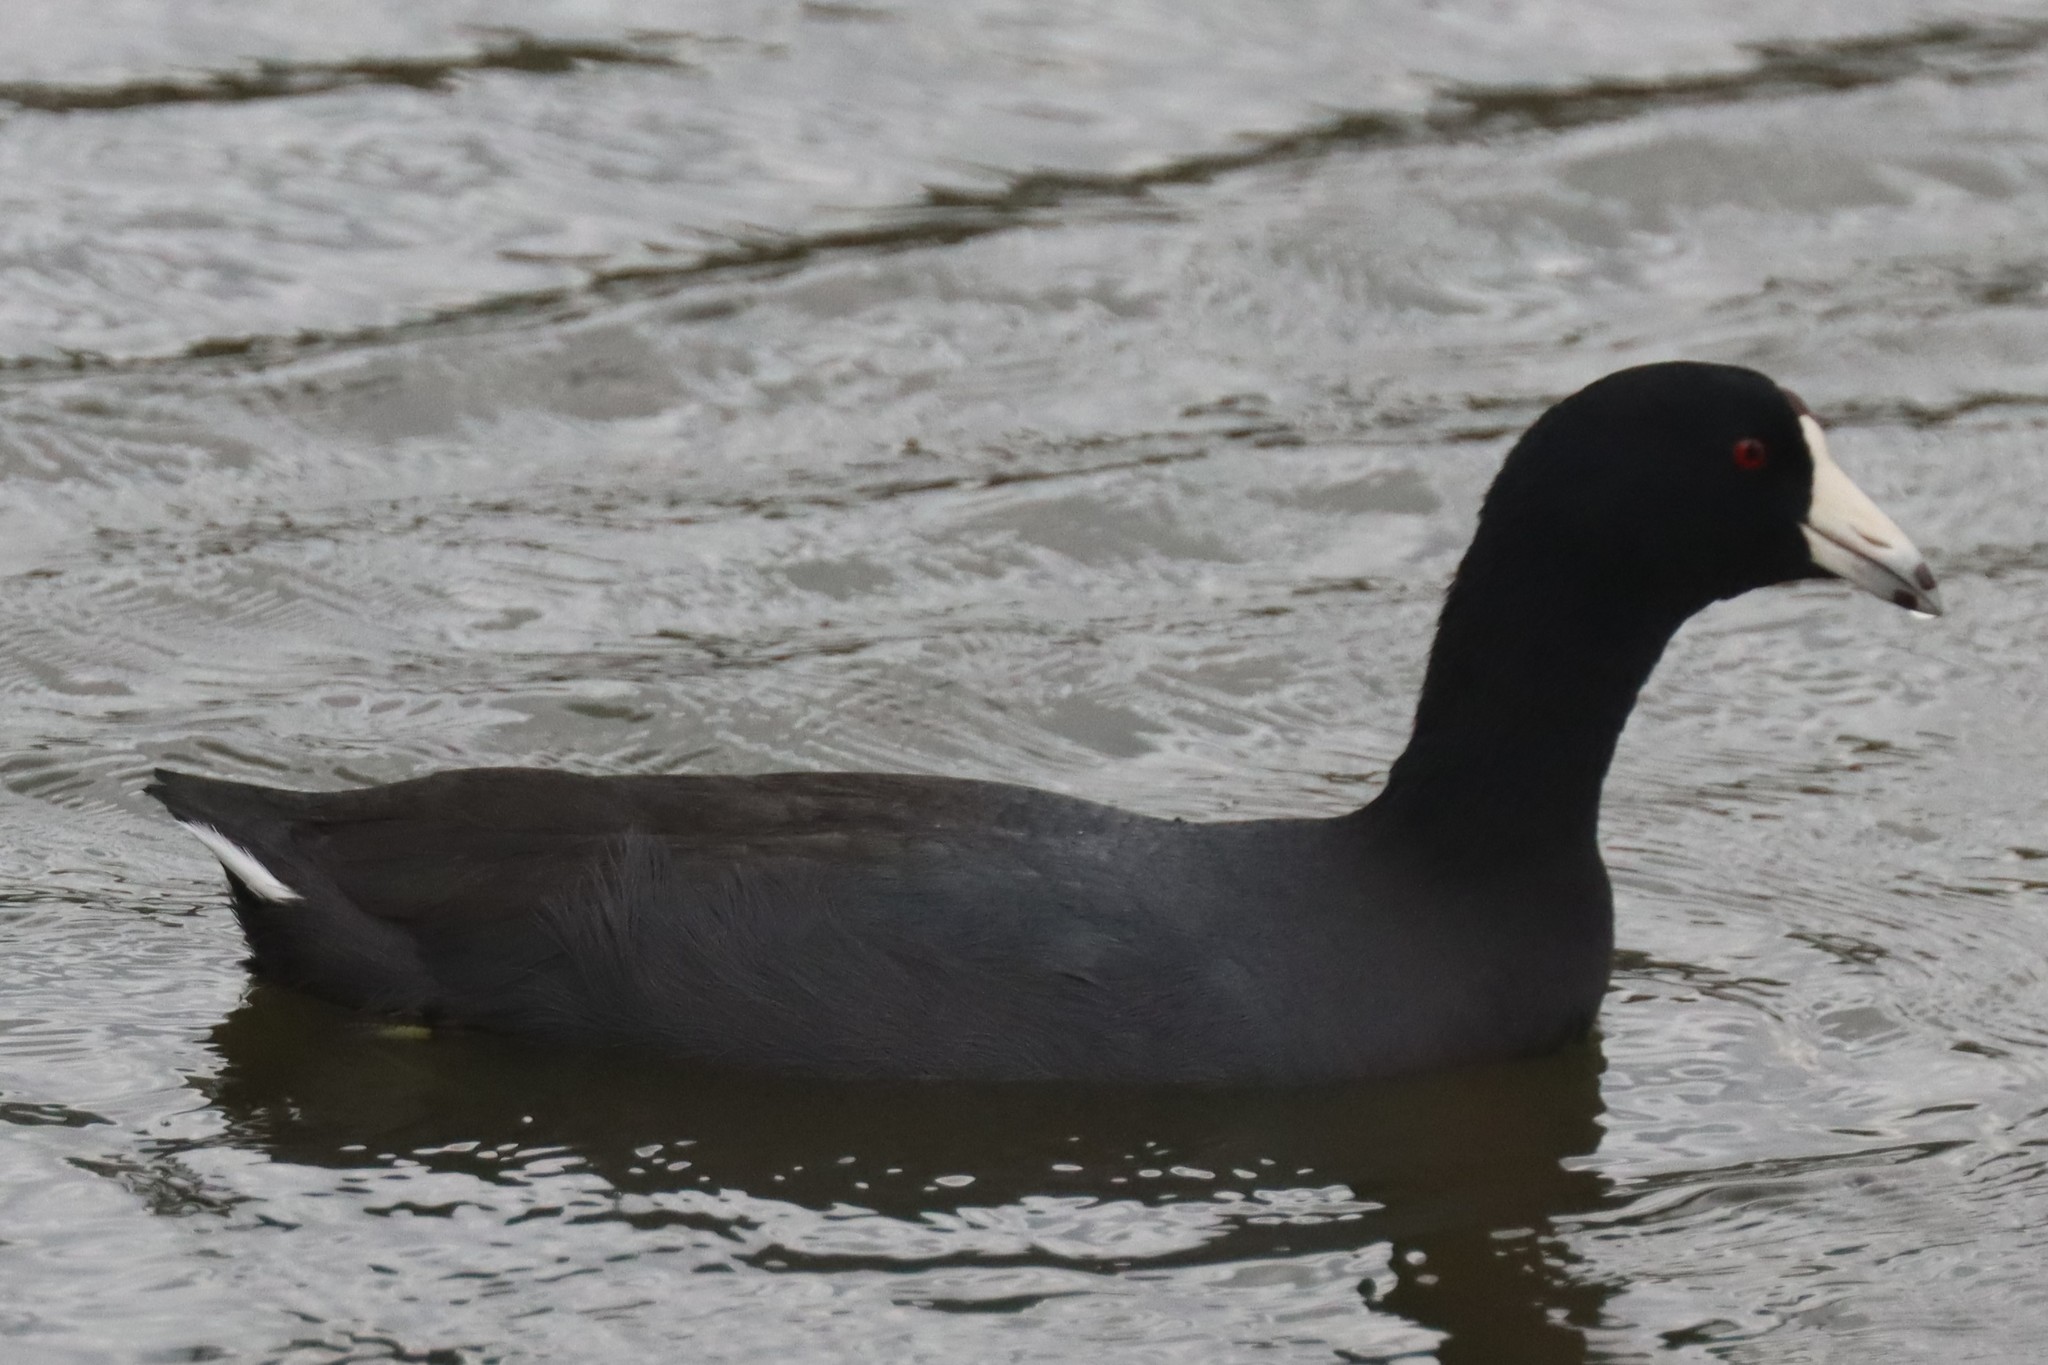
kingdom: Animalia
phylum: Chordata
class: Aves
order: Gruiformes
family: Rallidae
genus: Fulica
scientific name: Fulica americana
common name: American coot
